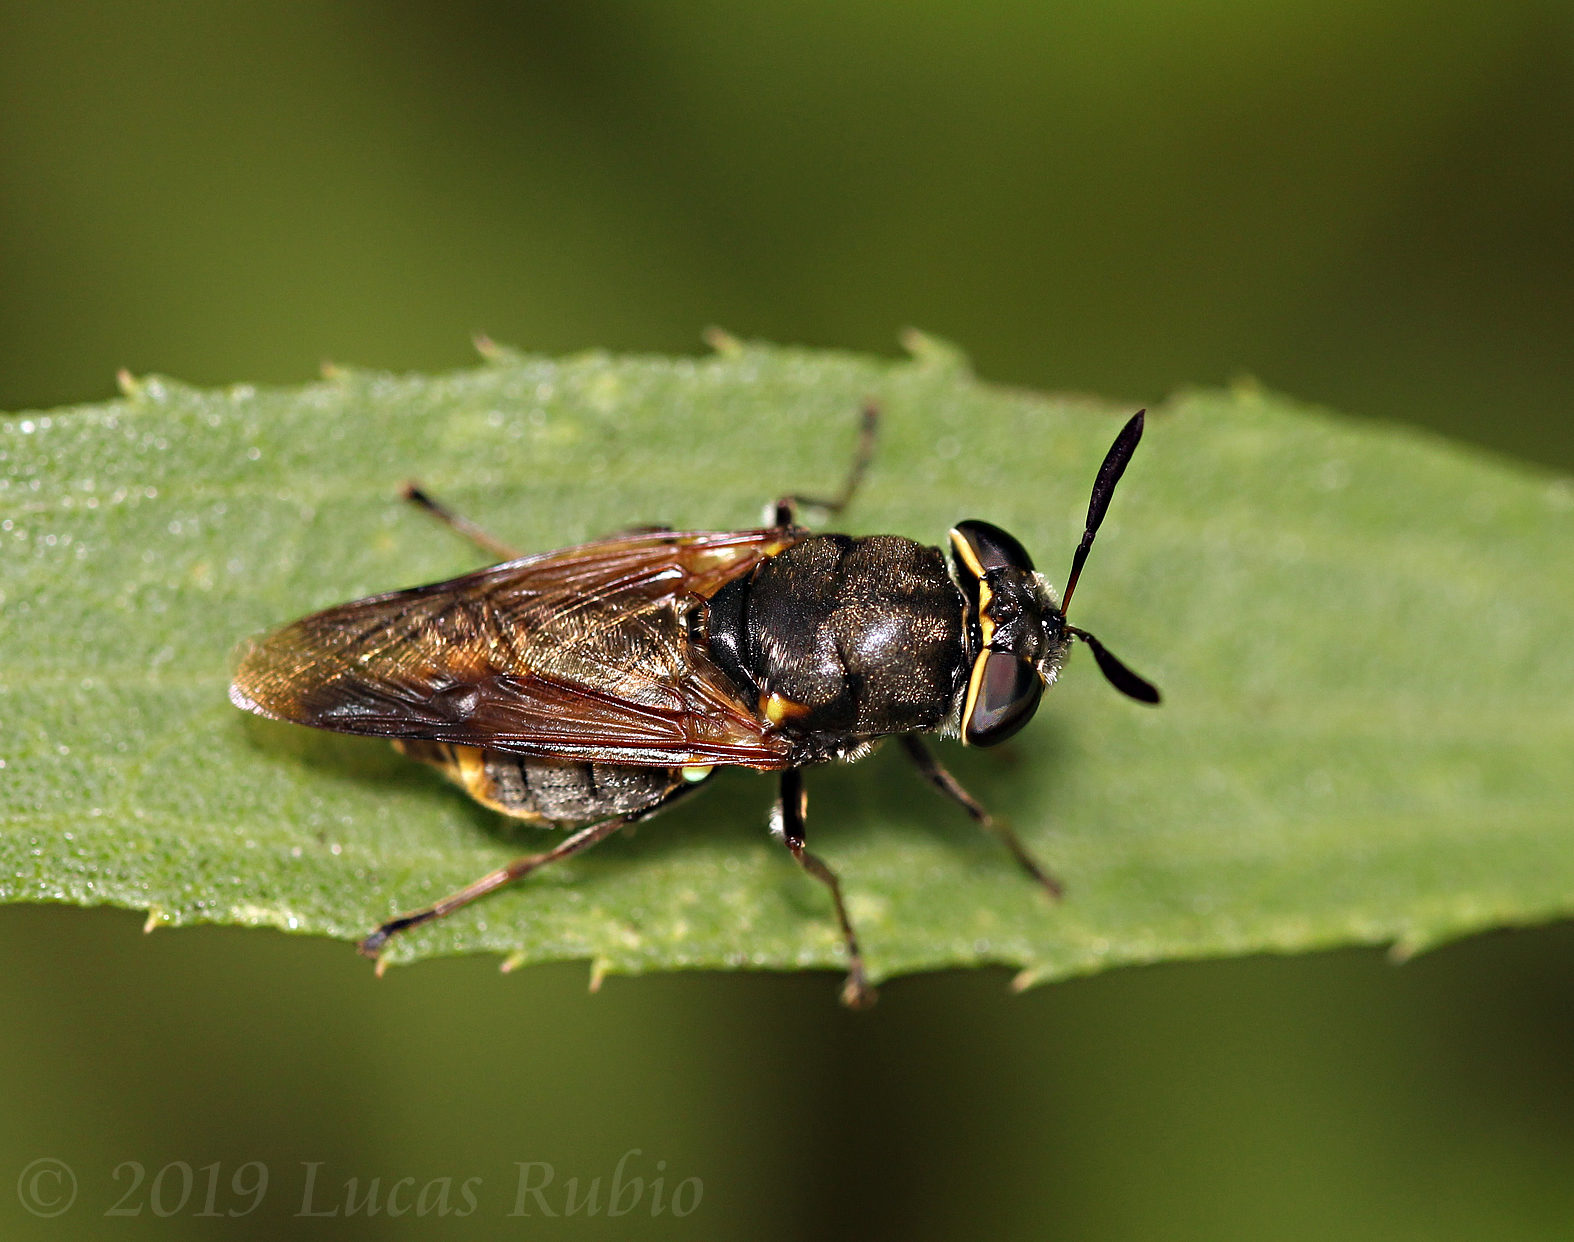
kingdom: Animalia
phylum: Arthropoda
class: Insecta
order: Diptera
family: Stratiomyidae
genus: Hoplitimyia
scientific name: Hoplitimyia
